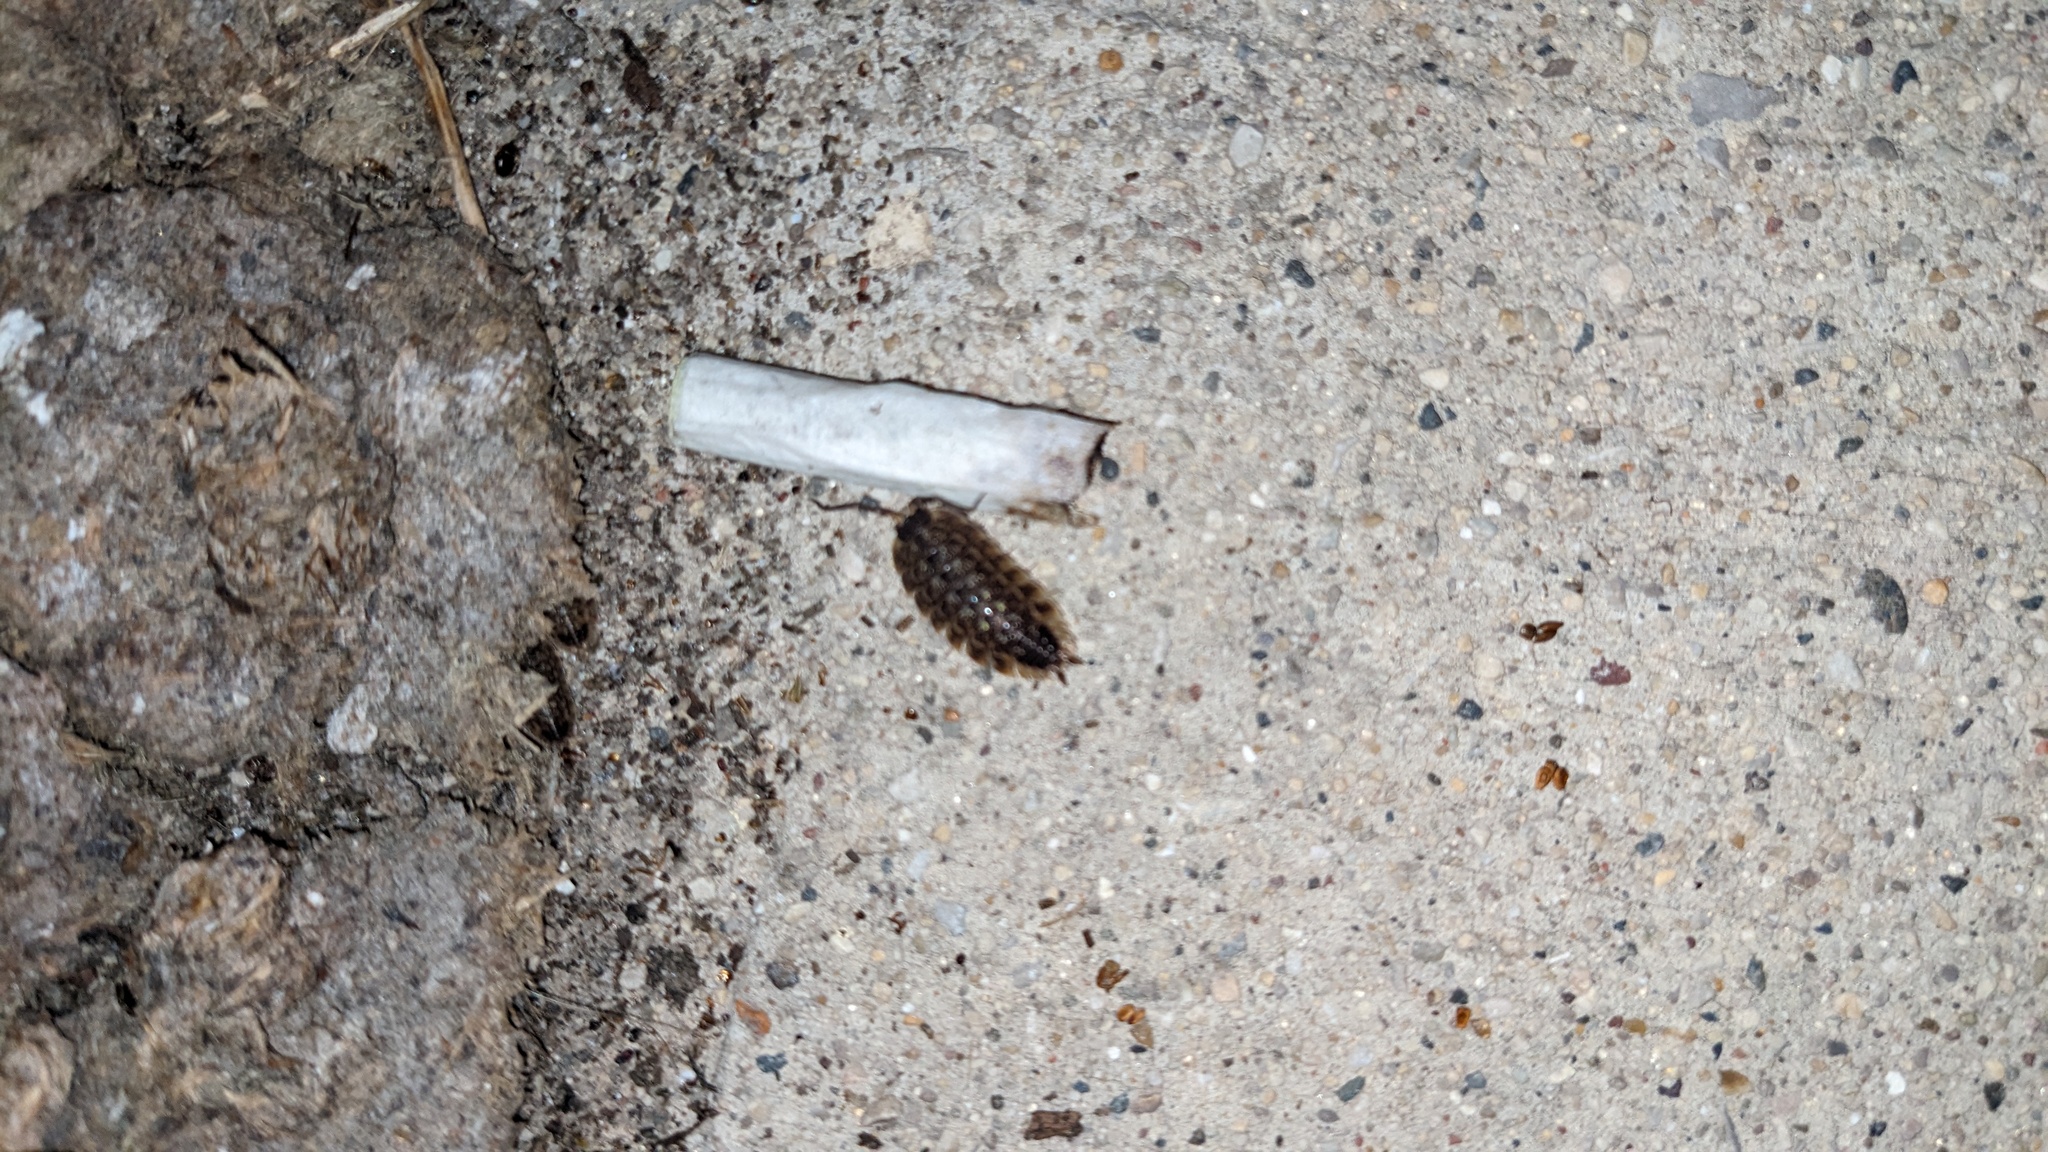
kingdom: Animalia
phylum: Arthropoda
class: Malacostraca
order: Isopoda
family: Porcellionidae
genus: Porcellio
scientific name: Porcellio spinicornis
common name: Painted woodlouse
